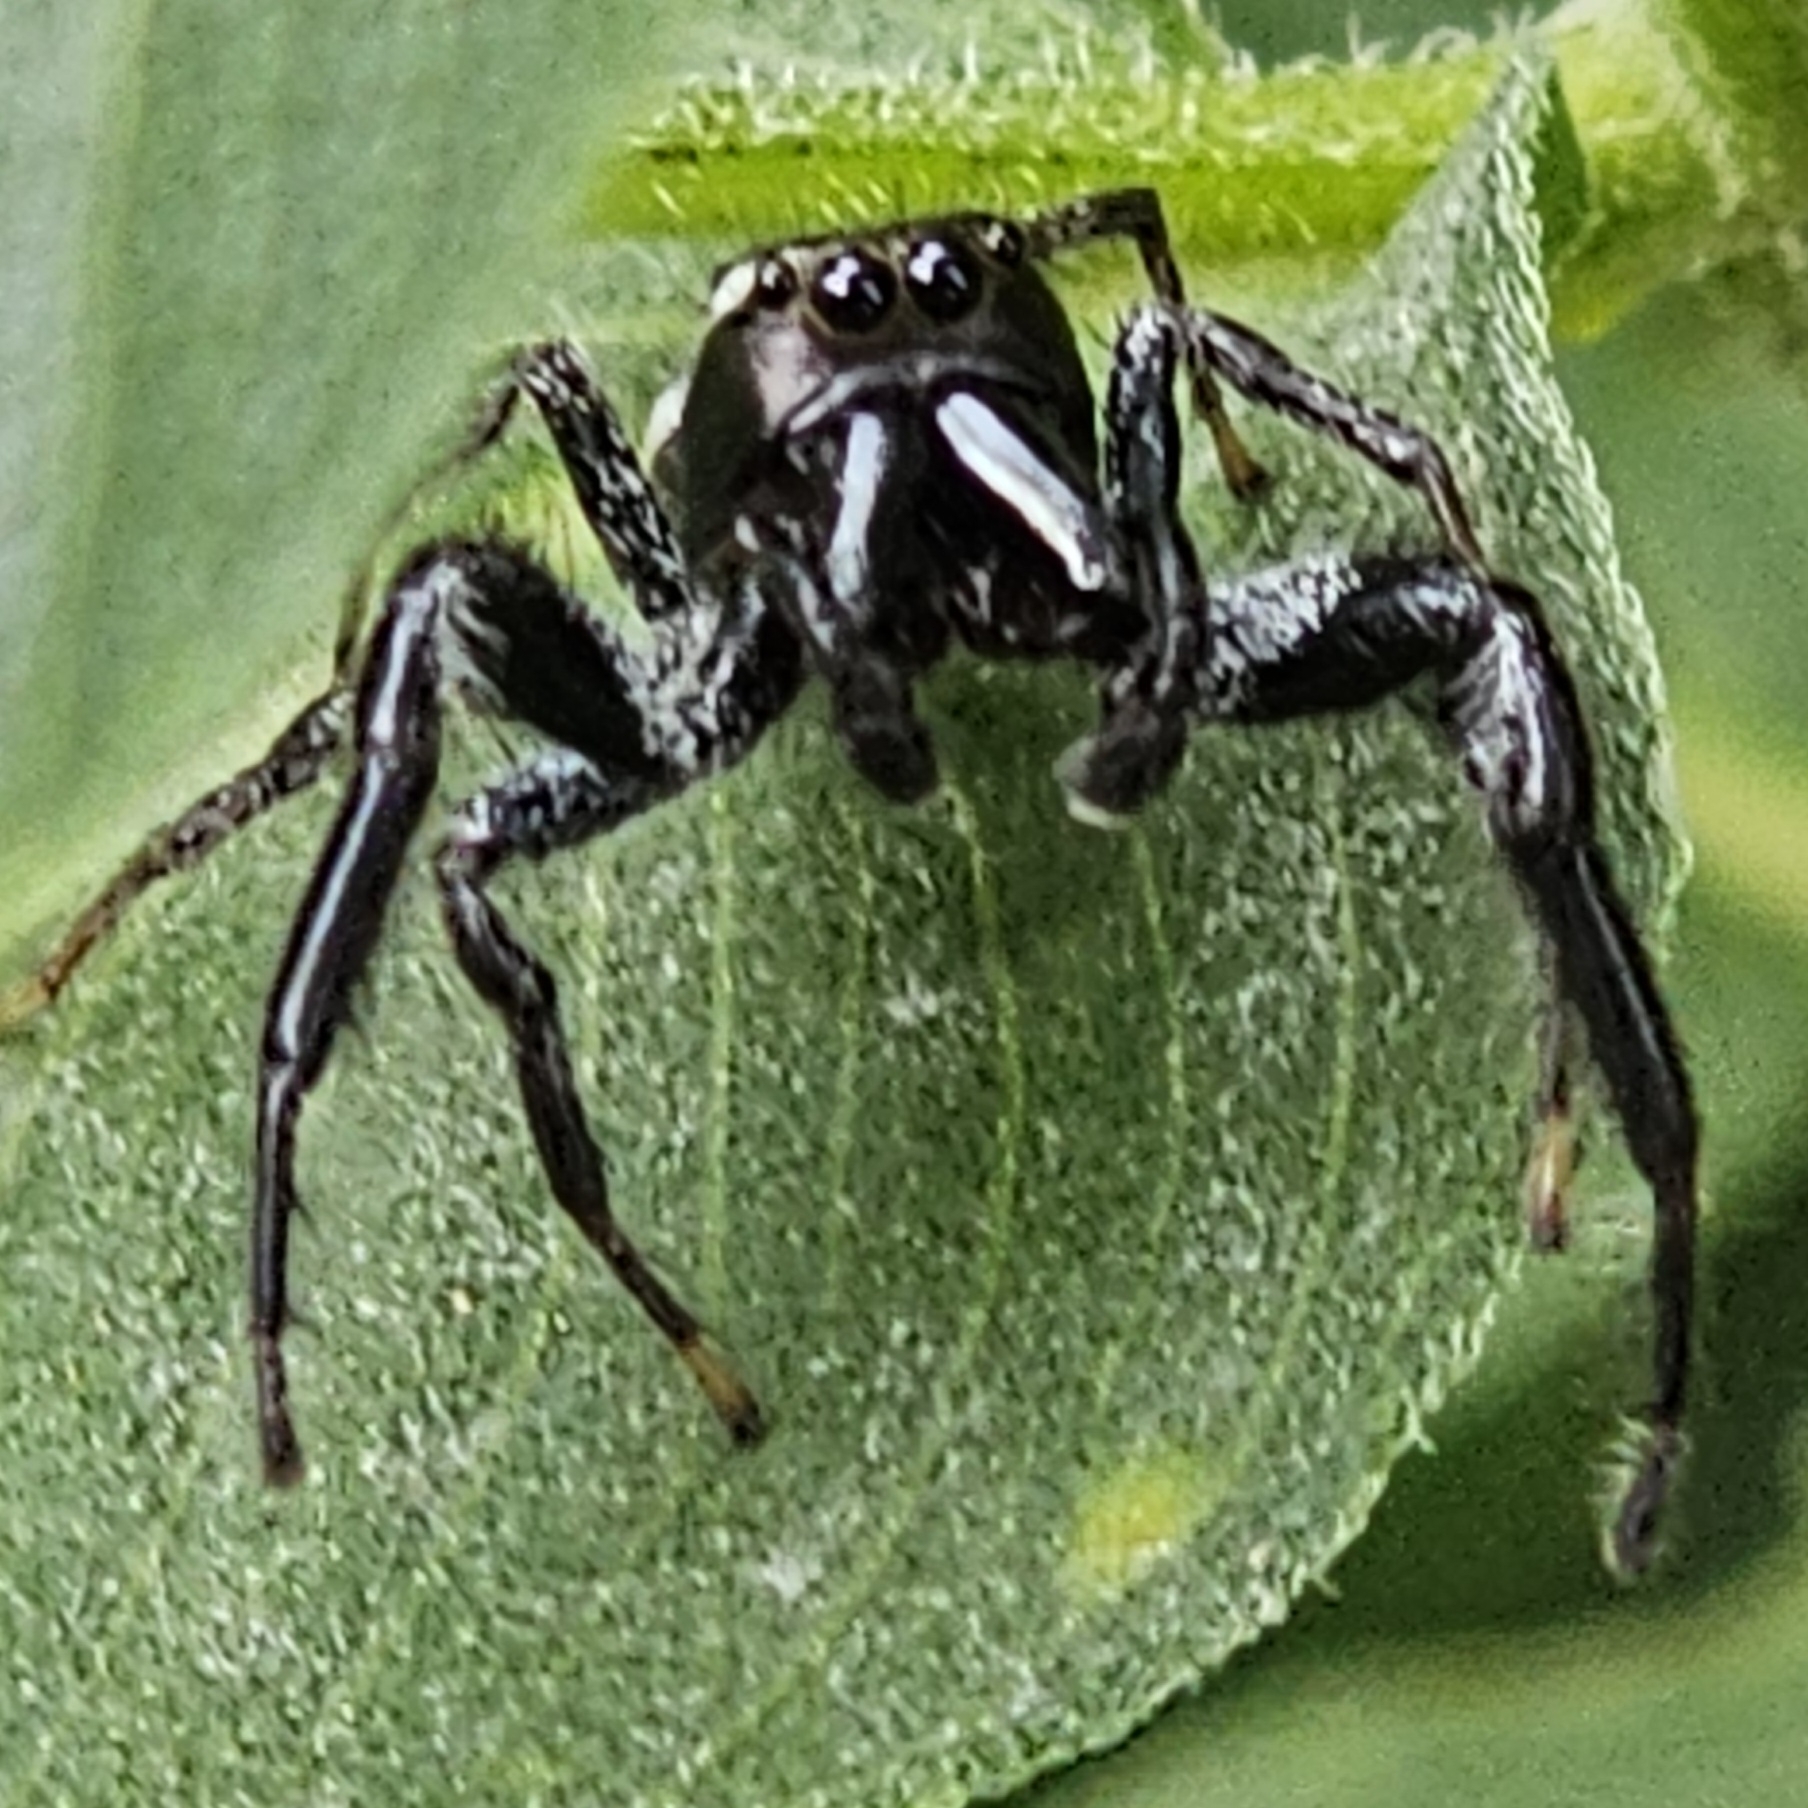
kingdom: Animalia
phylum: Arthropoda
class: Arachnida
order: Araneae
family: Salticidae
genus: Paraphidippus
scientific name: Paraphidippus aurantius
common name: Jumping spiders
